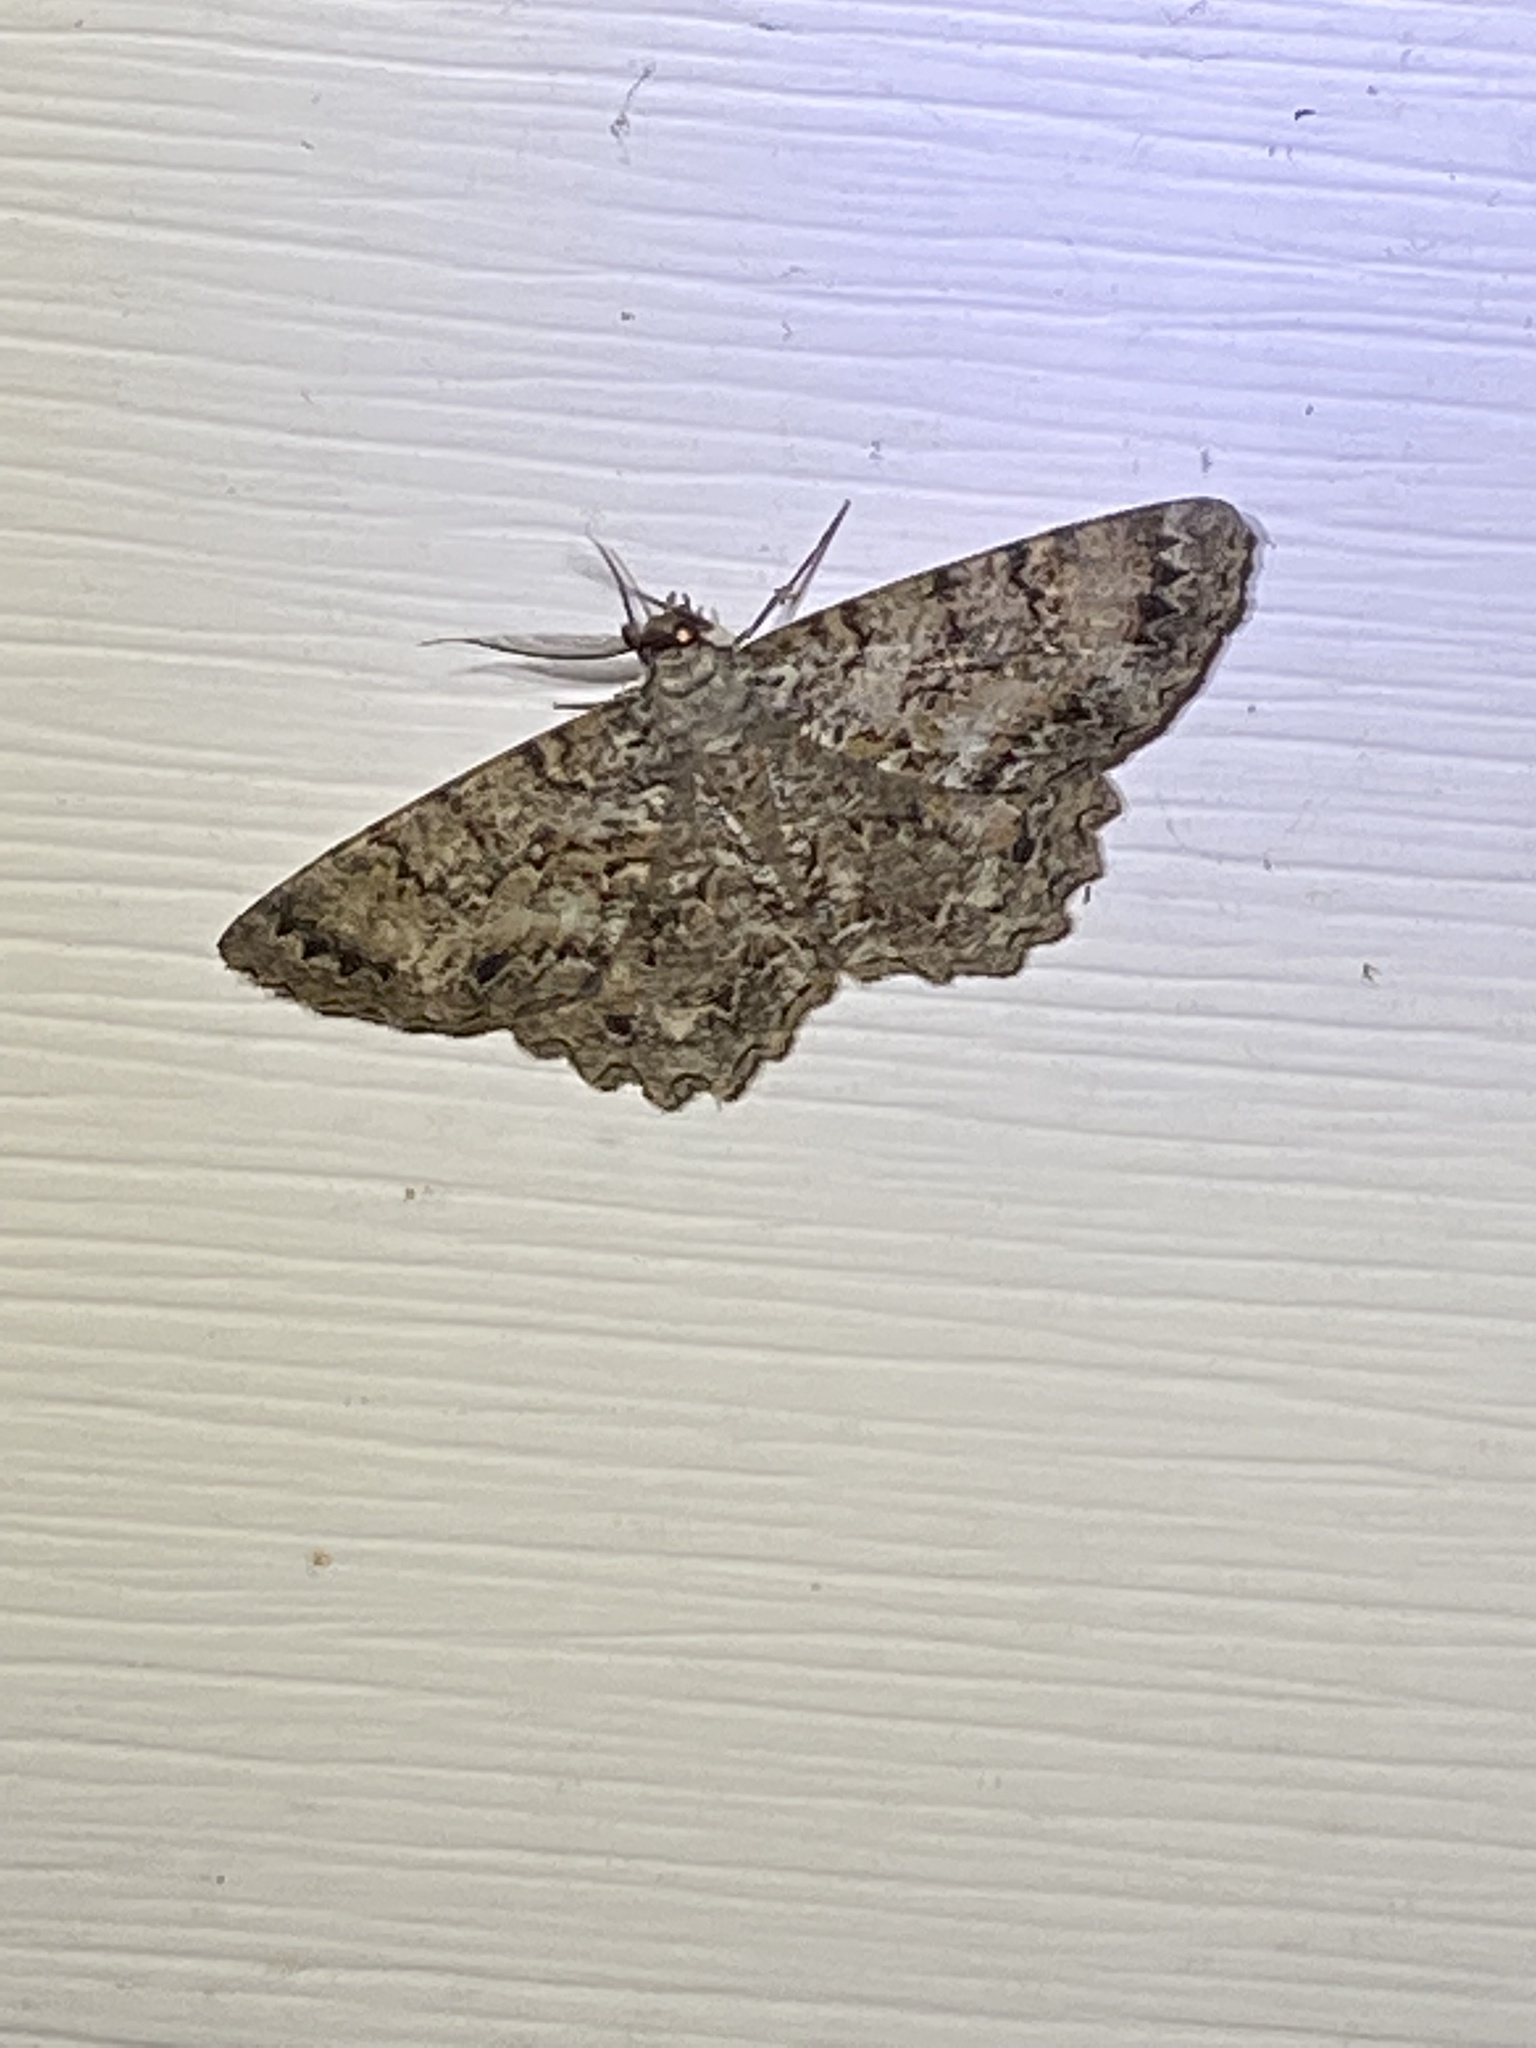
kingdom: Animalia
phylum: Arthropoda
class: Insecta
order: Lepidoptera
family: Geometridae
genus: Epimecis
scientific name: Epimecis hortaria
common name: Tulip-tree beauty
